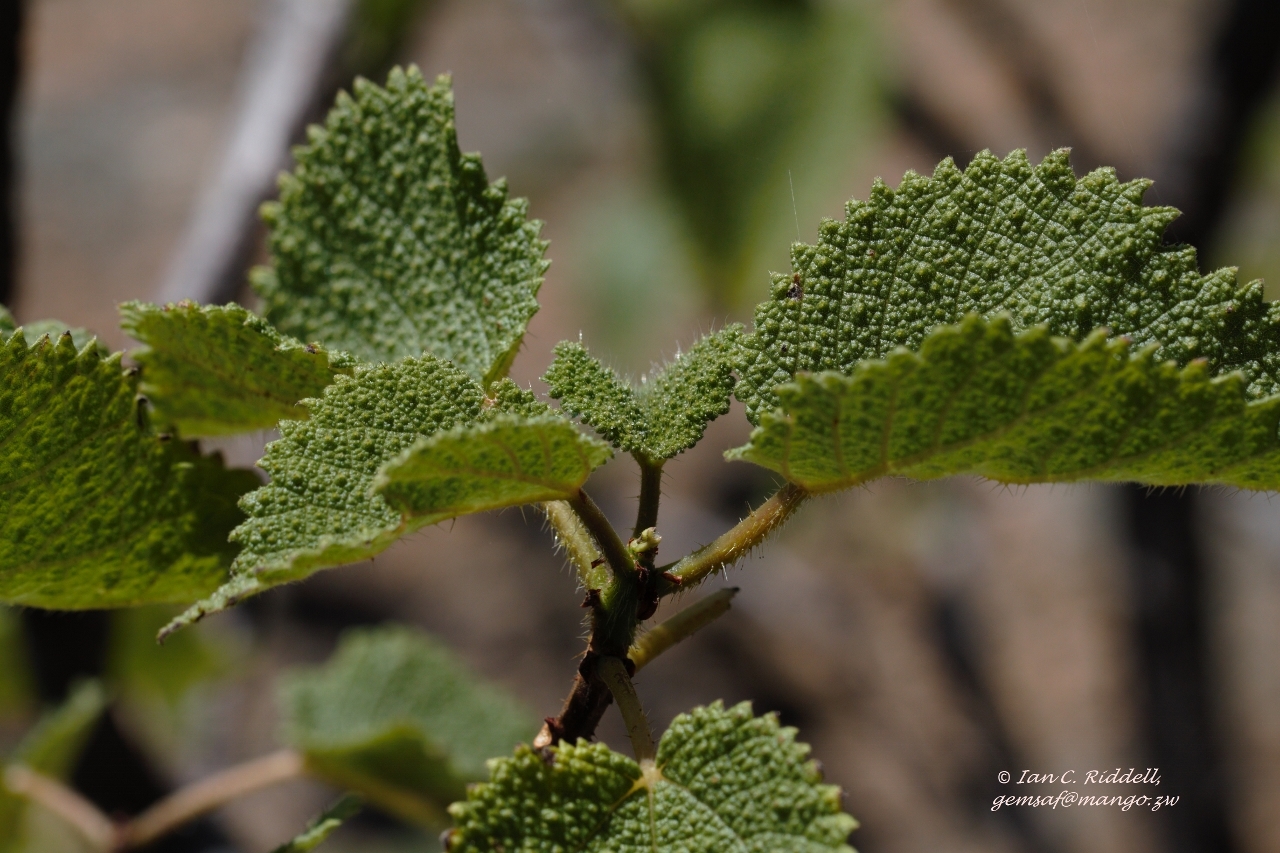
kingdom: Plantae
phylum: Tracheophyta
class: Magnoliopsida
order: Rosales
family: Urticaceae
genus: Obetia
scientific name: Obetia tenax
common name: Rock tree nettle
